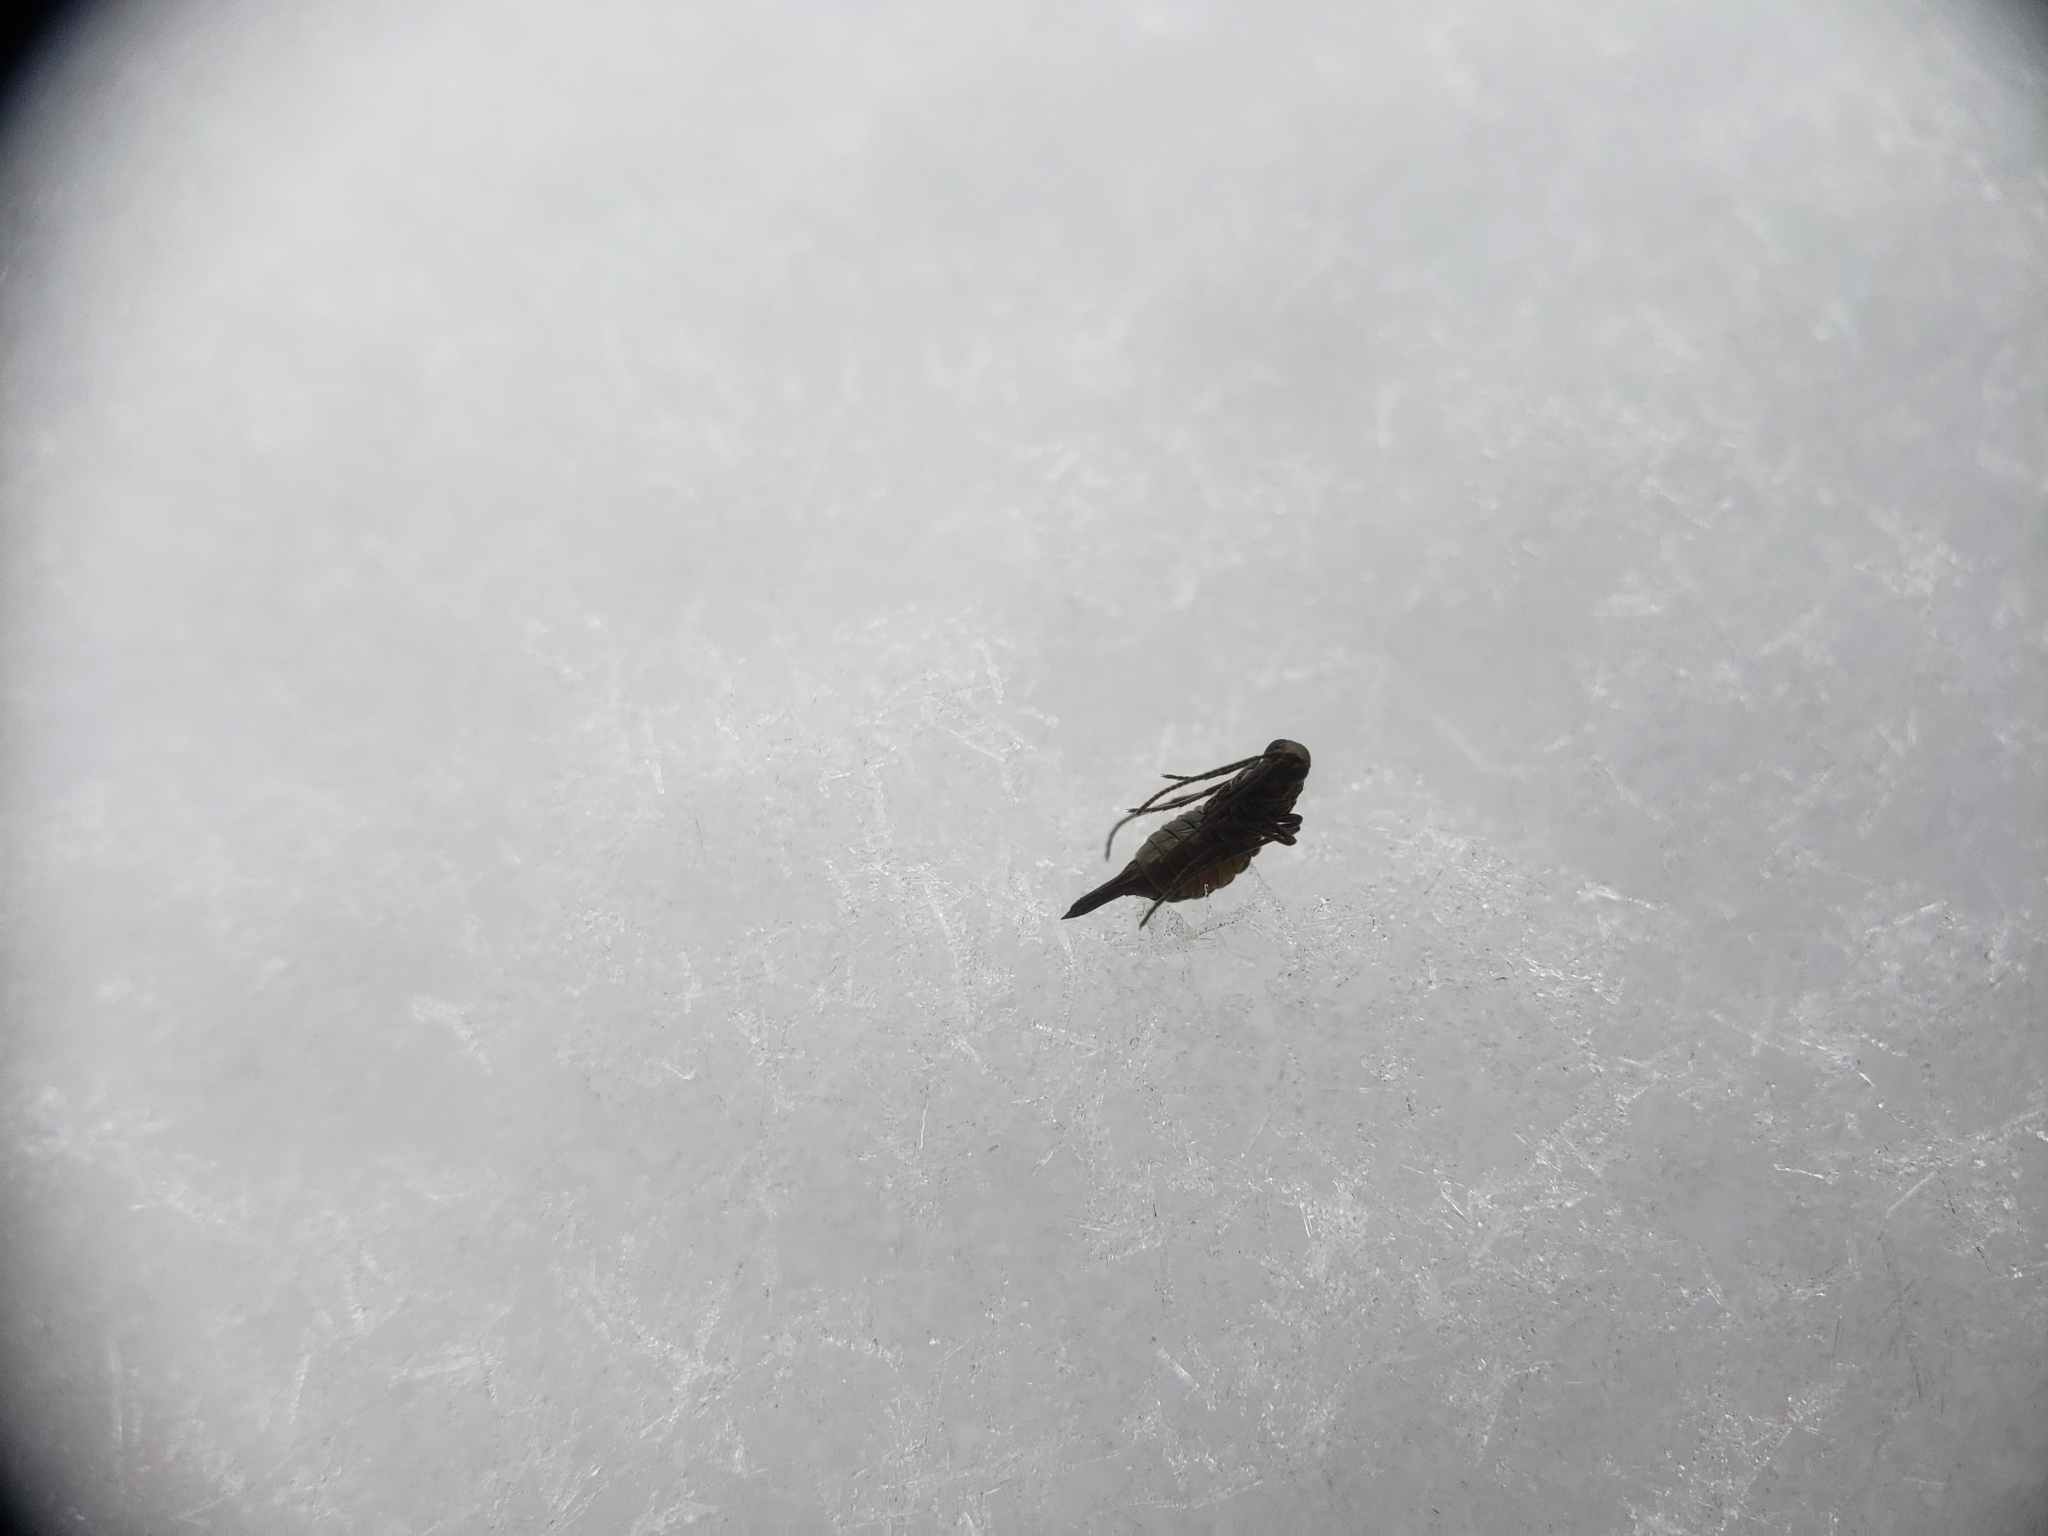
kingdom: Animalia
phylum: Arthropoda
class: Insecta
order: Mecoptera
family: Boreidae
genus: Boreus
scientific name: Boreus brumalis
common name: Mid-winter boreus
